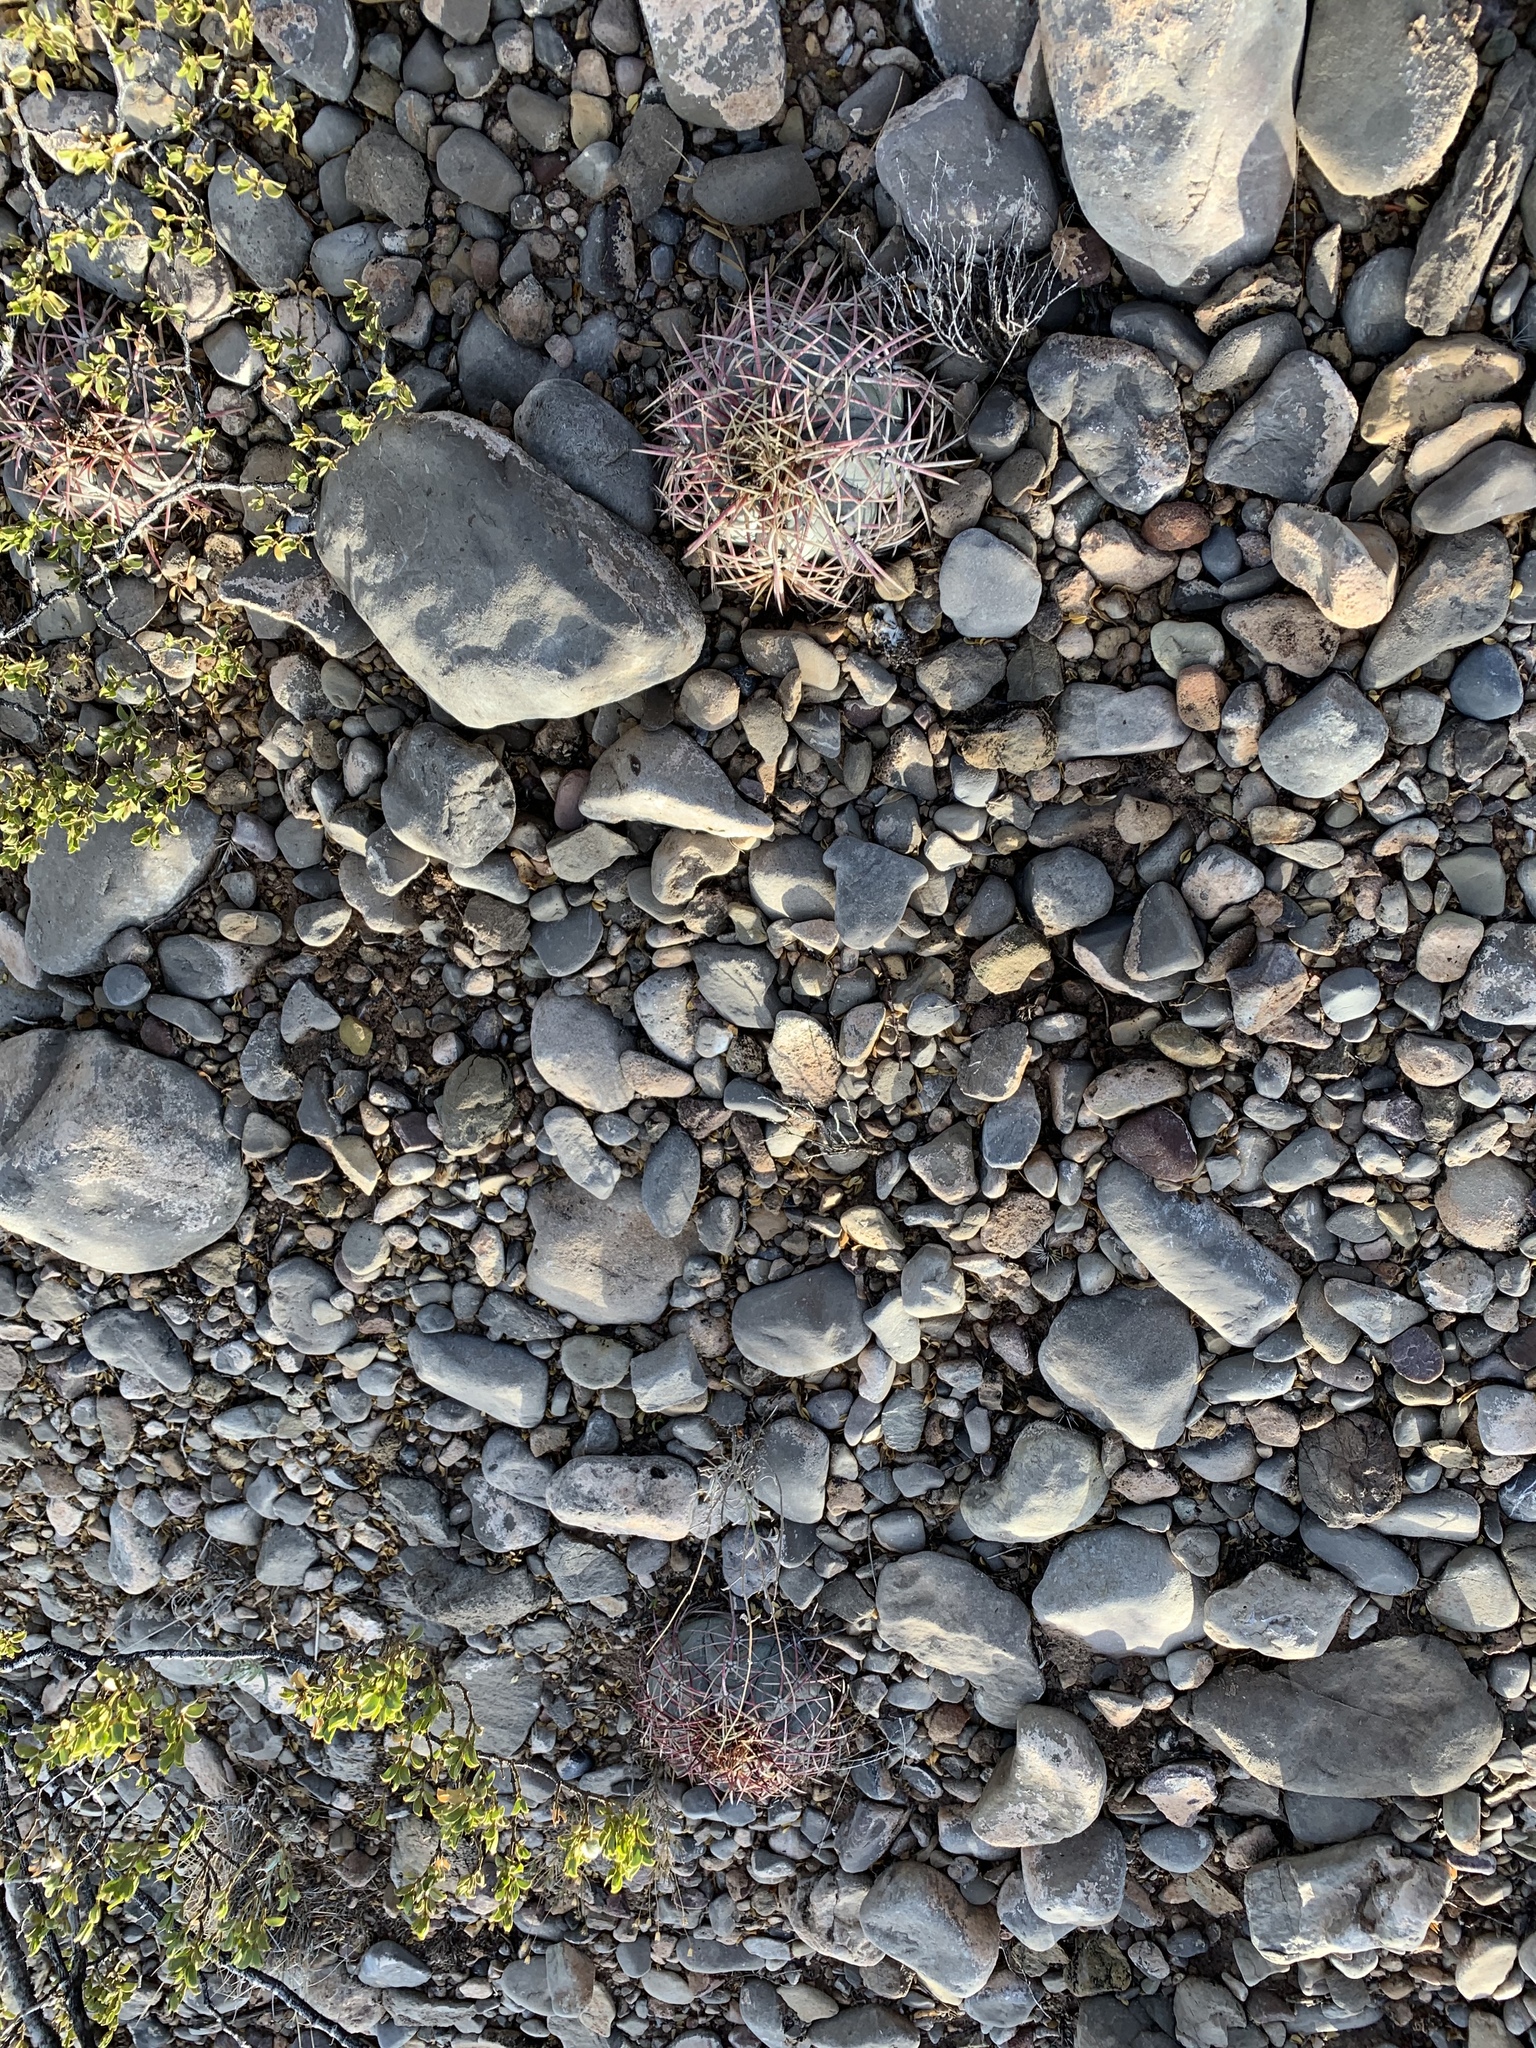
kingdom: Plantae
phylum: Tracheophyta
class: Magnoliopsida
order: Caryophyllales
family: Cactaceae
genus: Echinocactus
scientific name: Echinocactus horizonthalonius
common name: Devilshead
